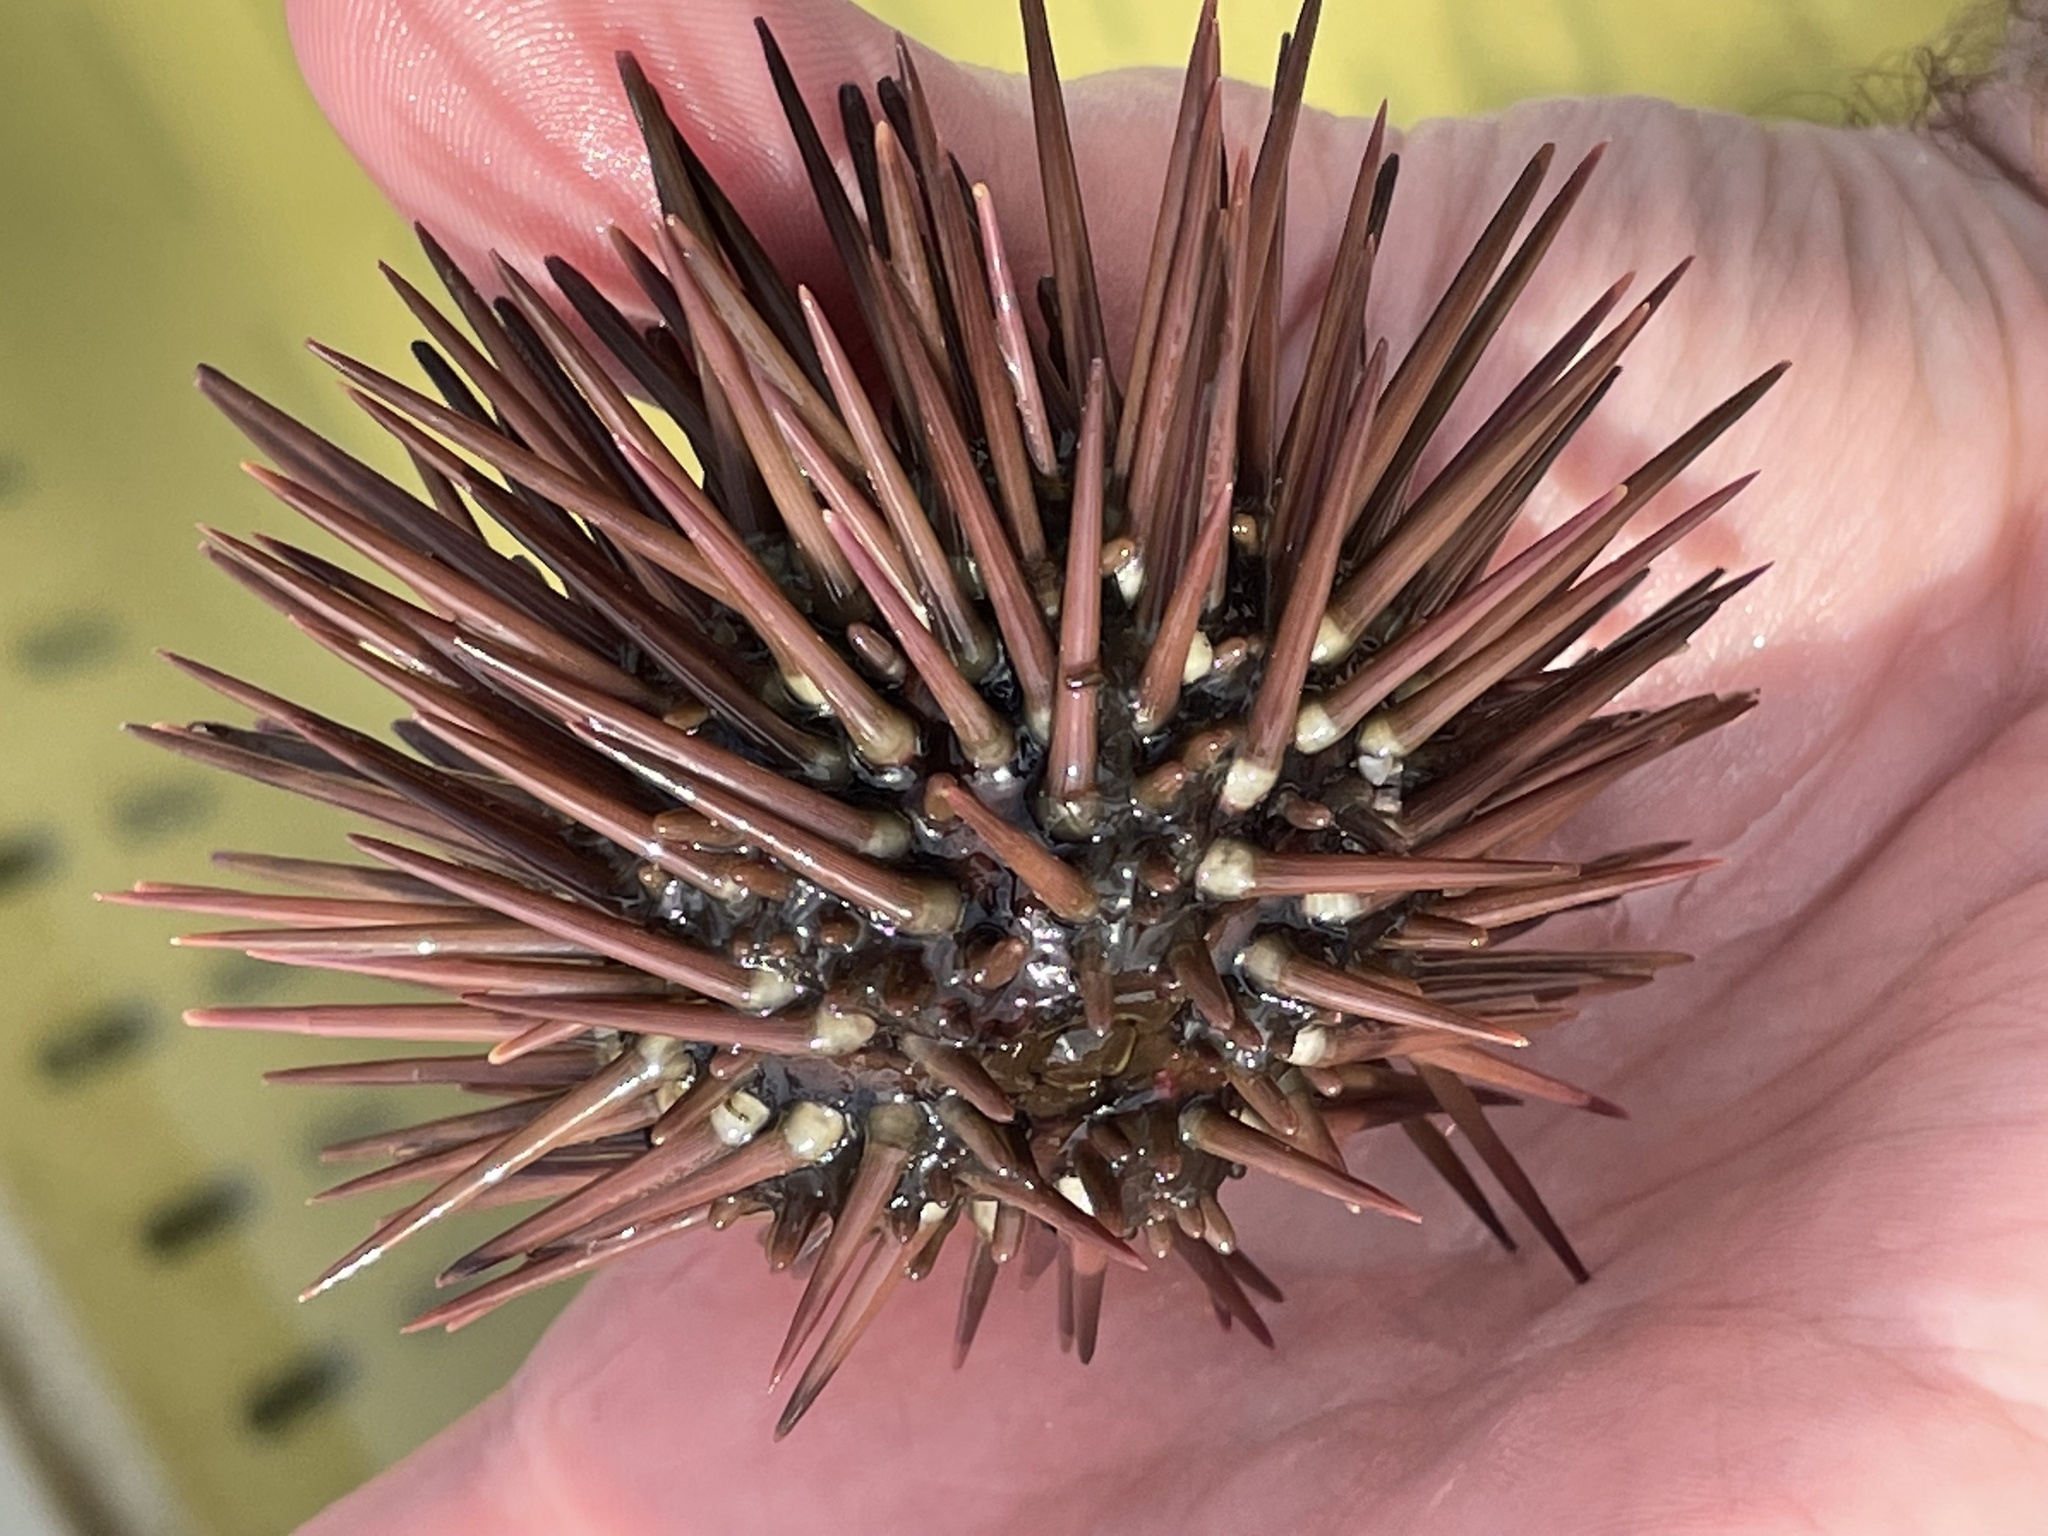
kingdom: Animalia
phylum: Echinodermata
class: Echinoidea
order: Arbacioida
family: Arbaciidae
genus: Arbacia
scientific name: Arbacia punctulata
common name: Purple-spined sea urchin
